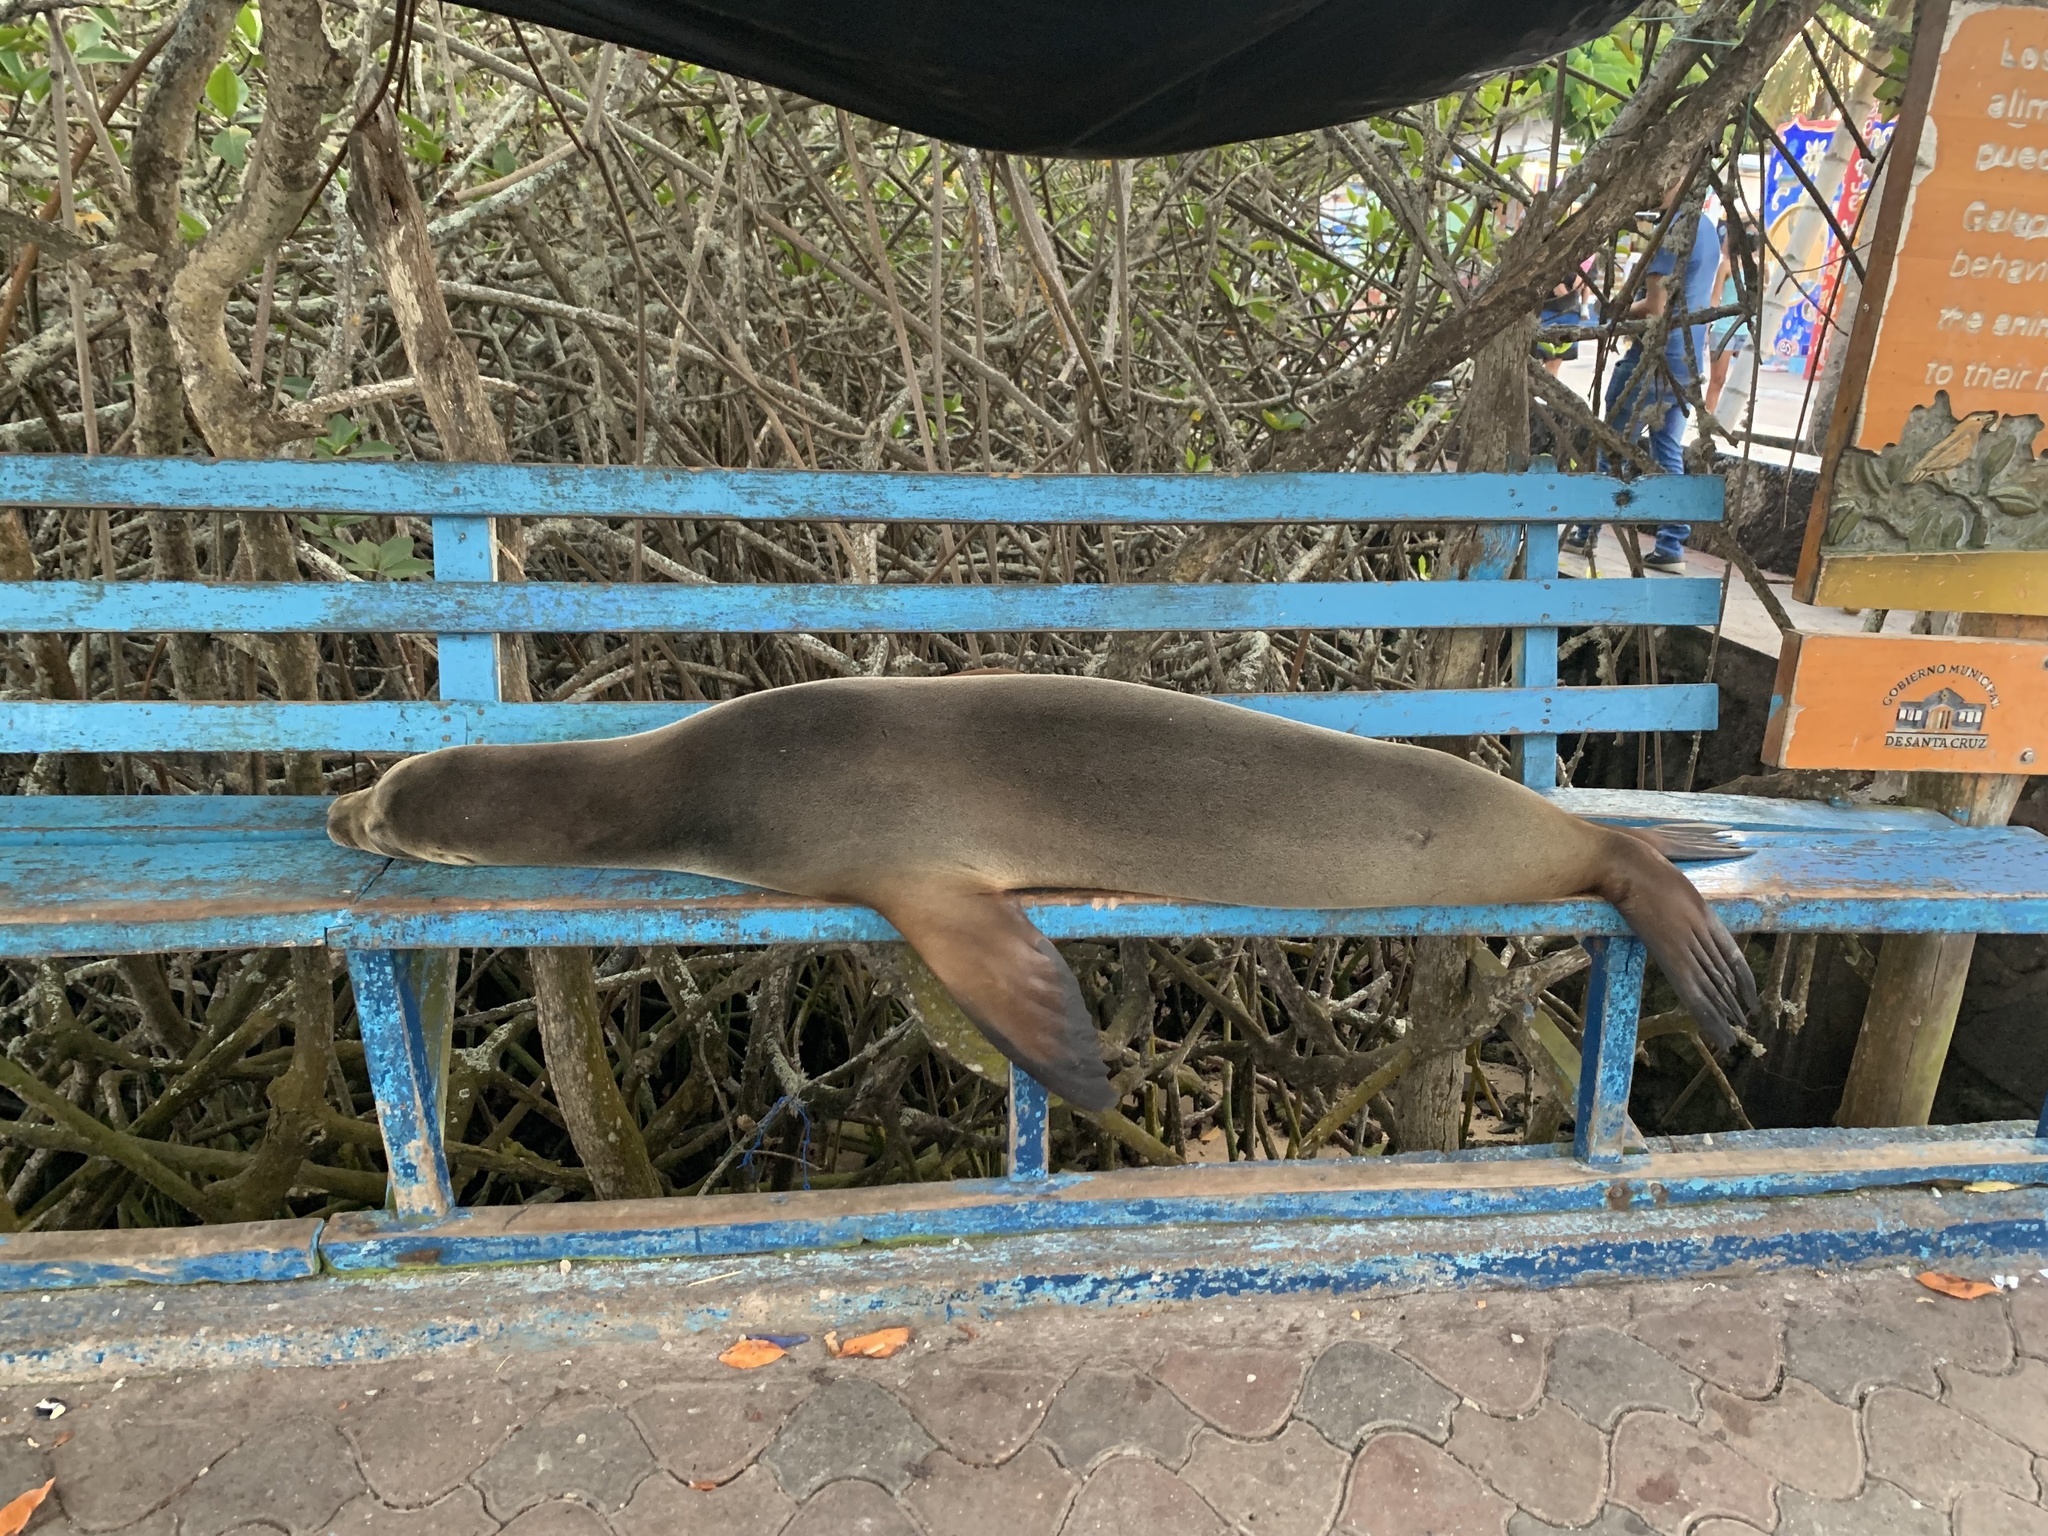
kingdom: Animalia
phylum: Chordata
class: Mammalia
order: Carnivora
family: Otariidae
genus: Zalophus
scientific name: Zalophus wollebaeki
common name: Galapagos sea lion
